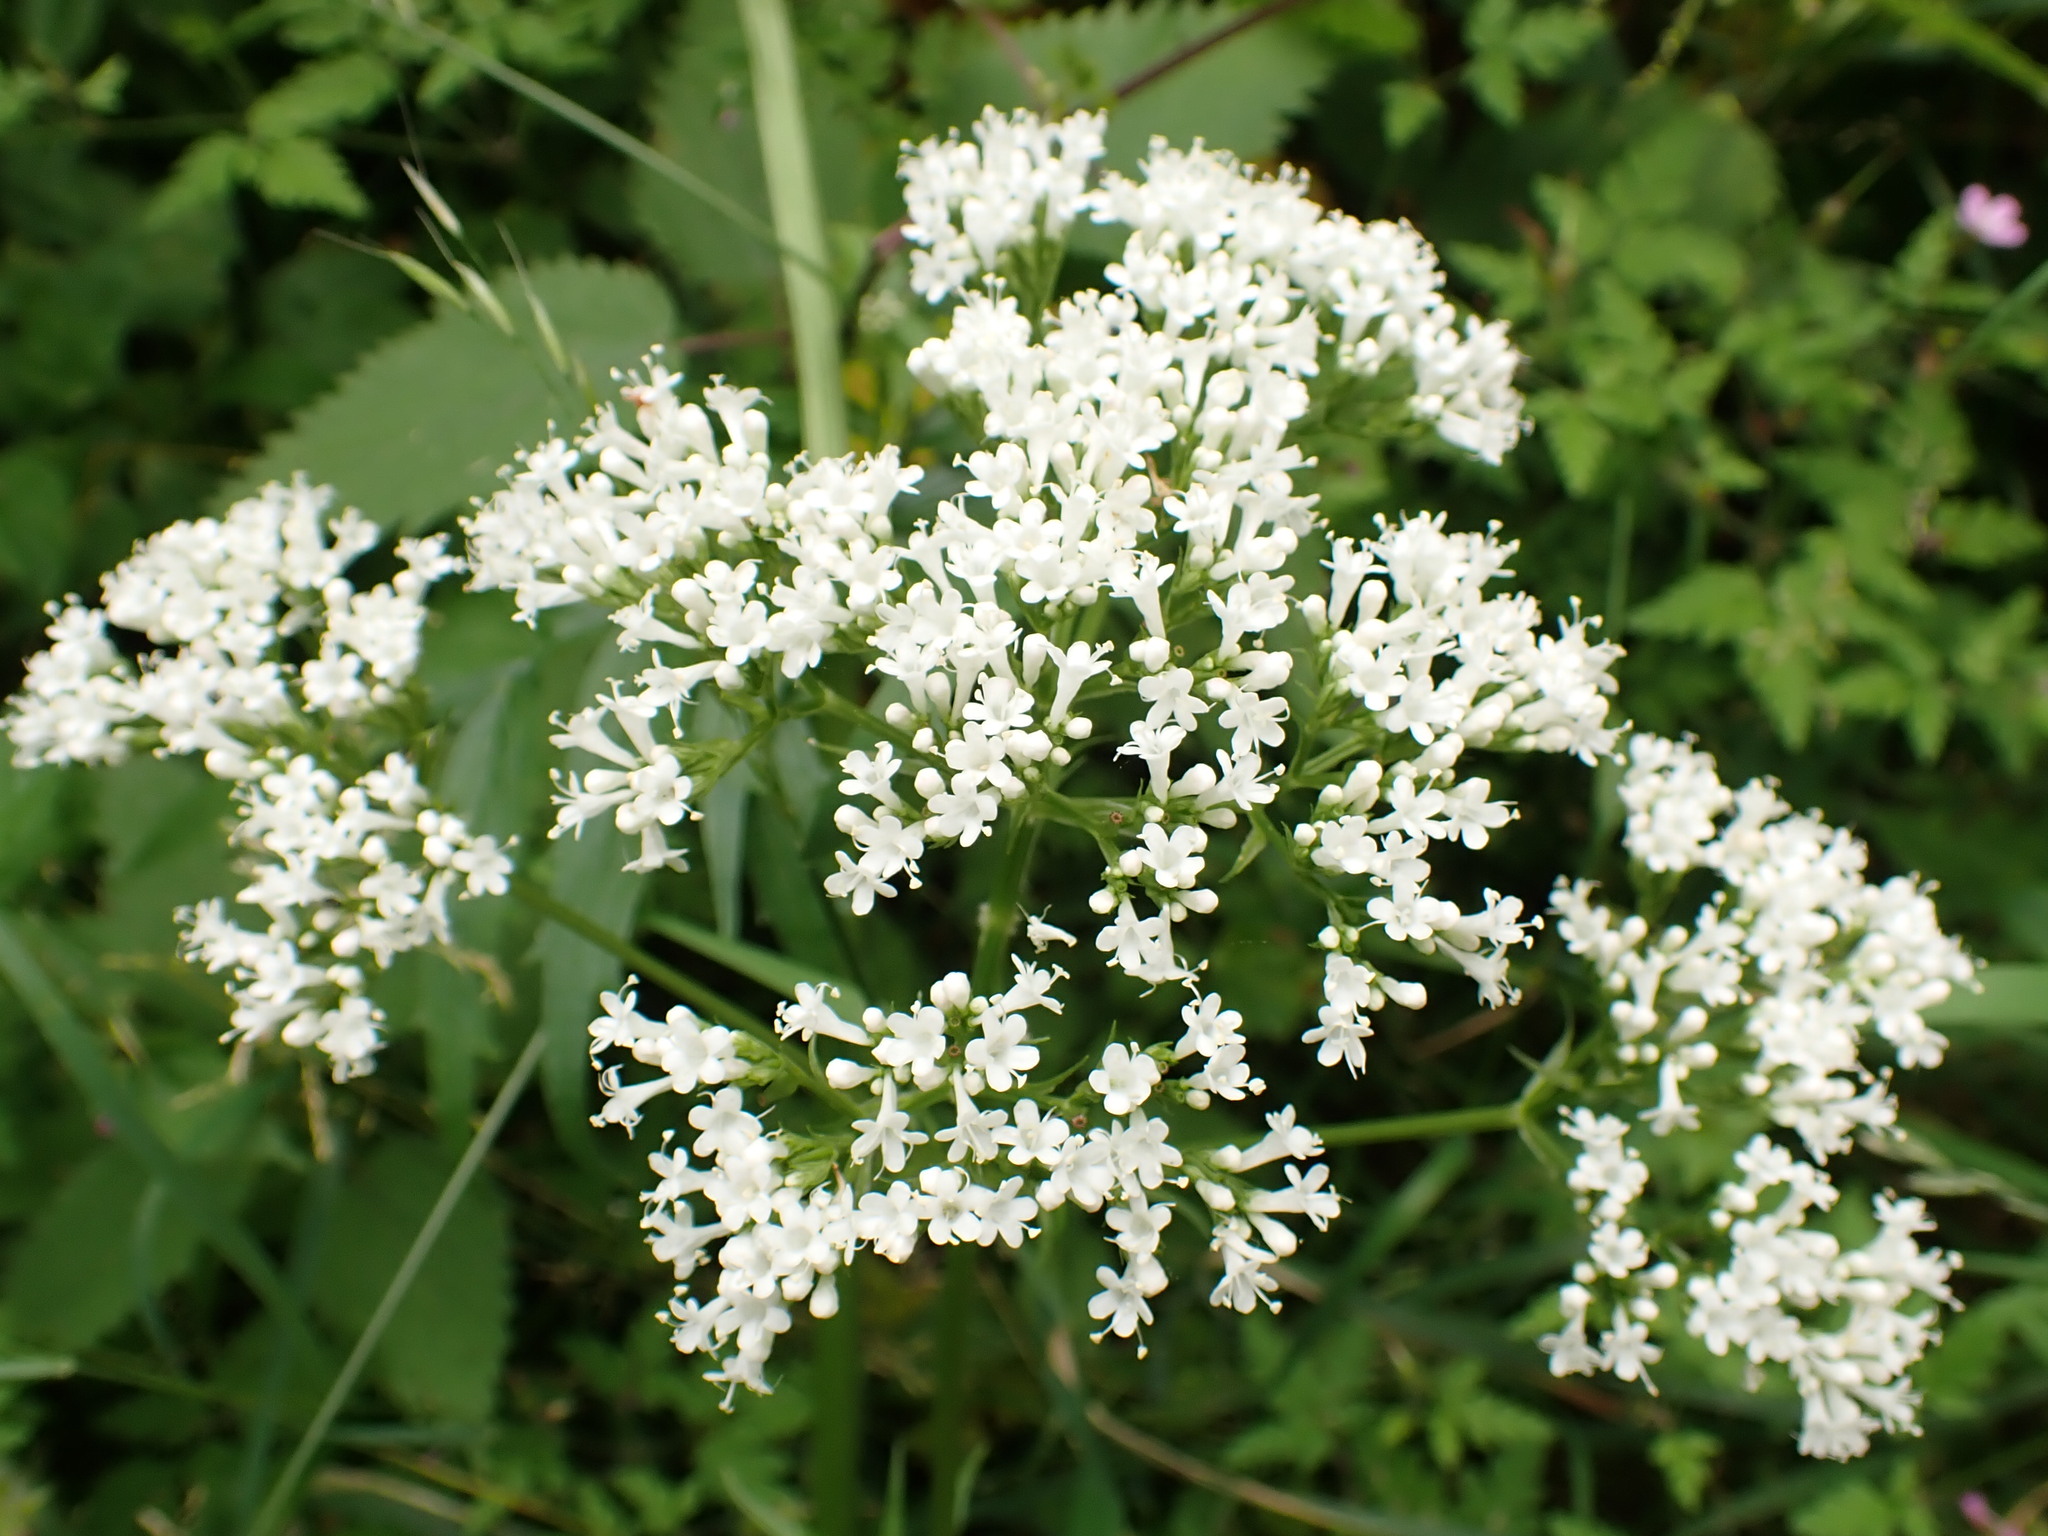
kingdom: Plantae
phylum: Tracheophyta
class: Magnoliopsida
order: Dipsacales
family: Caprifoliaceae
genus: Valeriana
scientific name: Valeriana officinalis
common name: Common valerian
